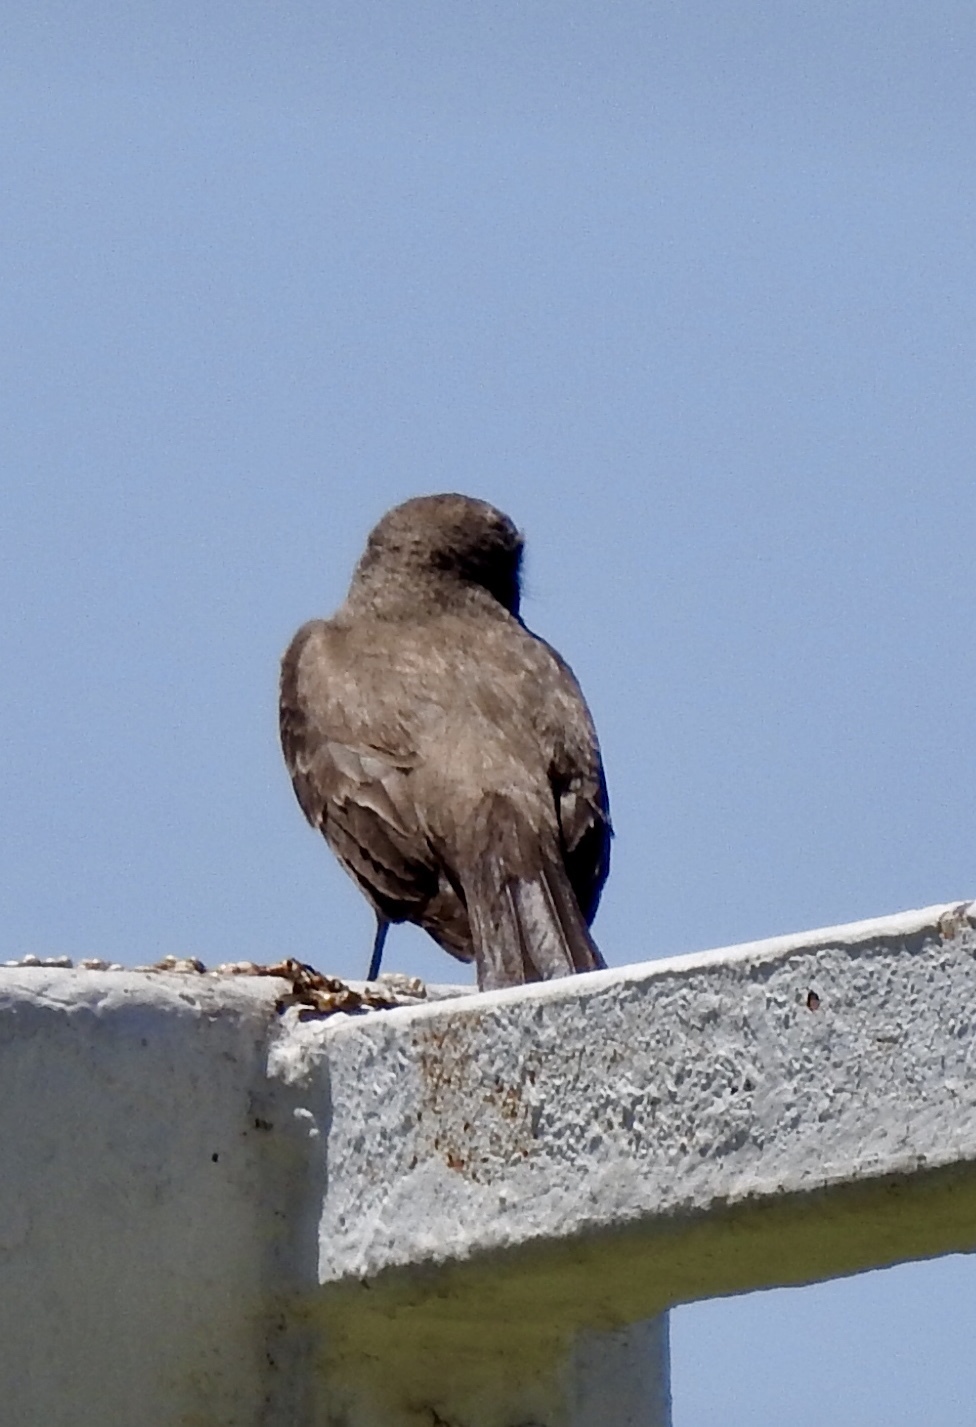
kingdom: Animalia
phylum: Chordata
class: Aves
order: Passeriformes
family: Tyrannidae
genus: Pyrocephalus
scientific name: Pyrocephalus rubinus
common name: Vermilion flycatcher
